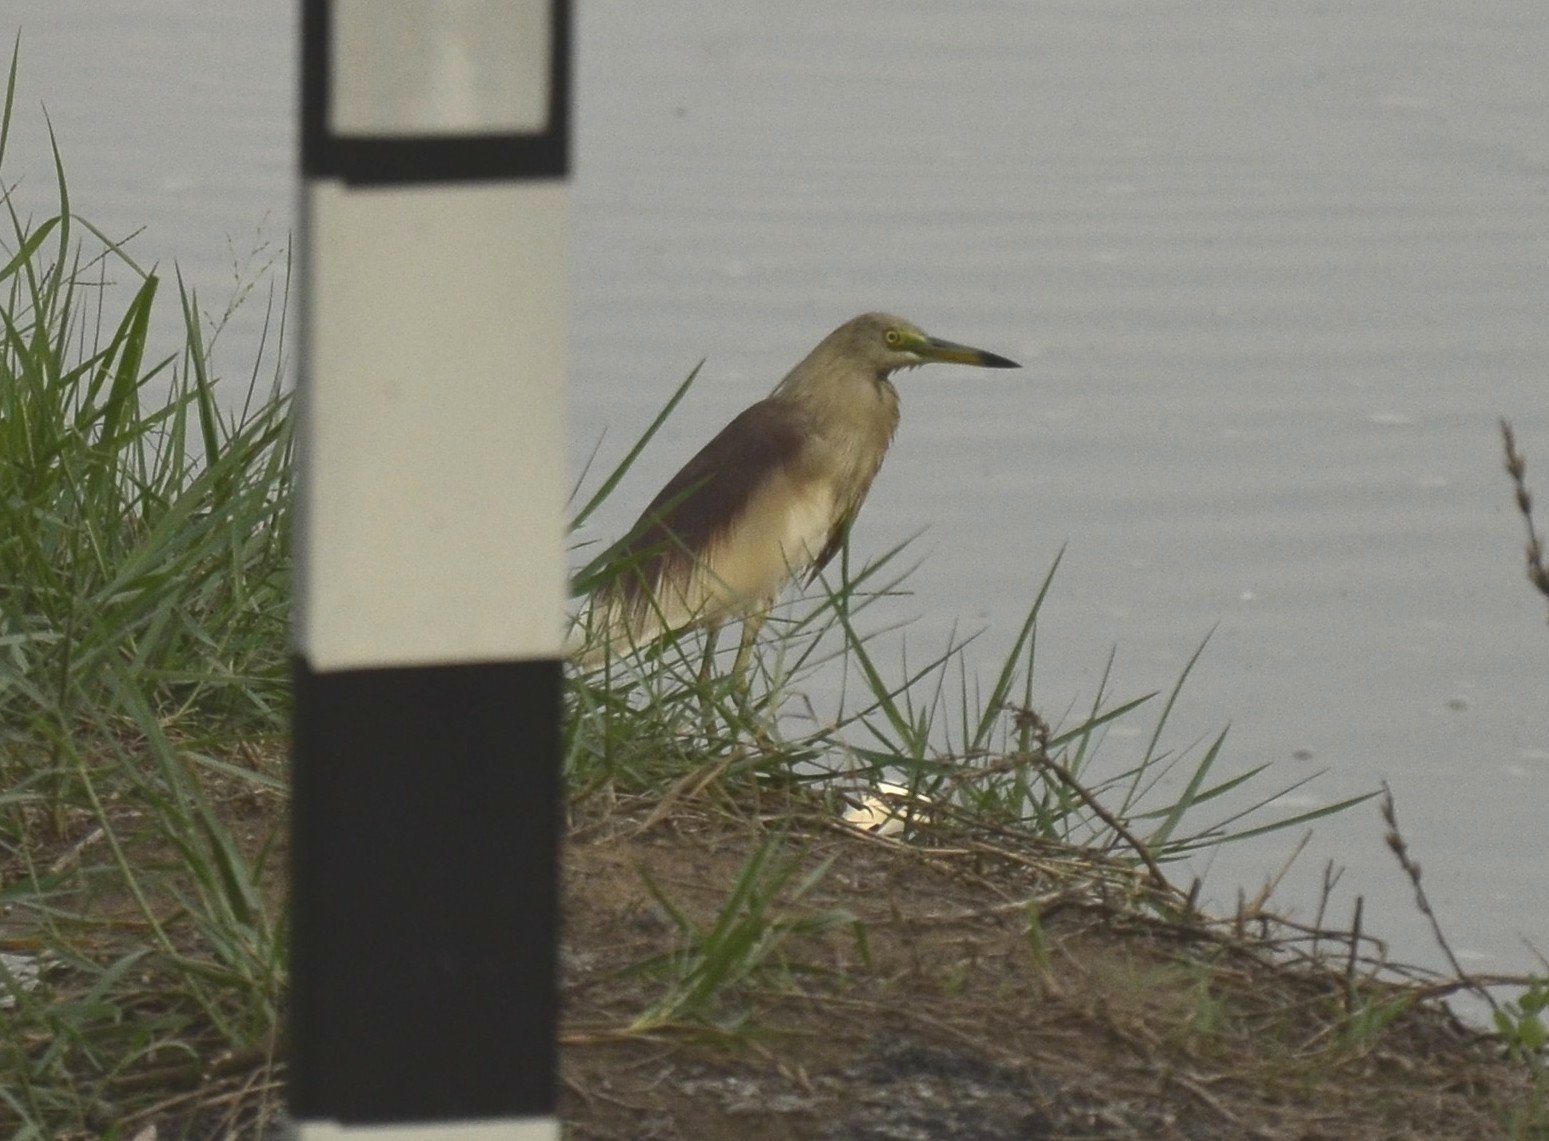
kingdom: Animalia
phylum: Chordata
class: Aves
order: Pelecaniformes
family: Ardeidae
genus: Ardeola
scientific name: Ardeola grayii
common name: Indian pond heron
